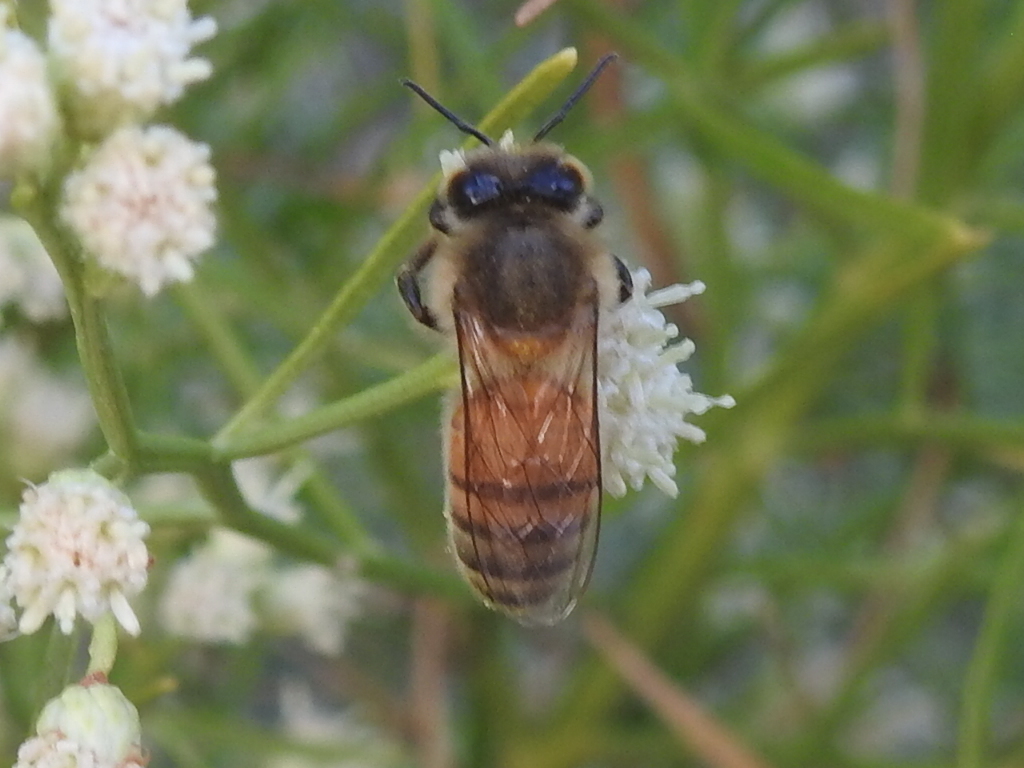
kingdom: Animalia
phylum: Arthropoda
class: Insecta
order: Hymenoptera
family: Apidae
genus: Apis
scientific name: Apis mellifera
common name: Honey bee
